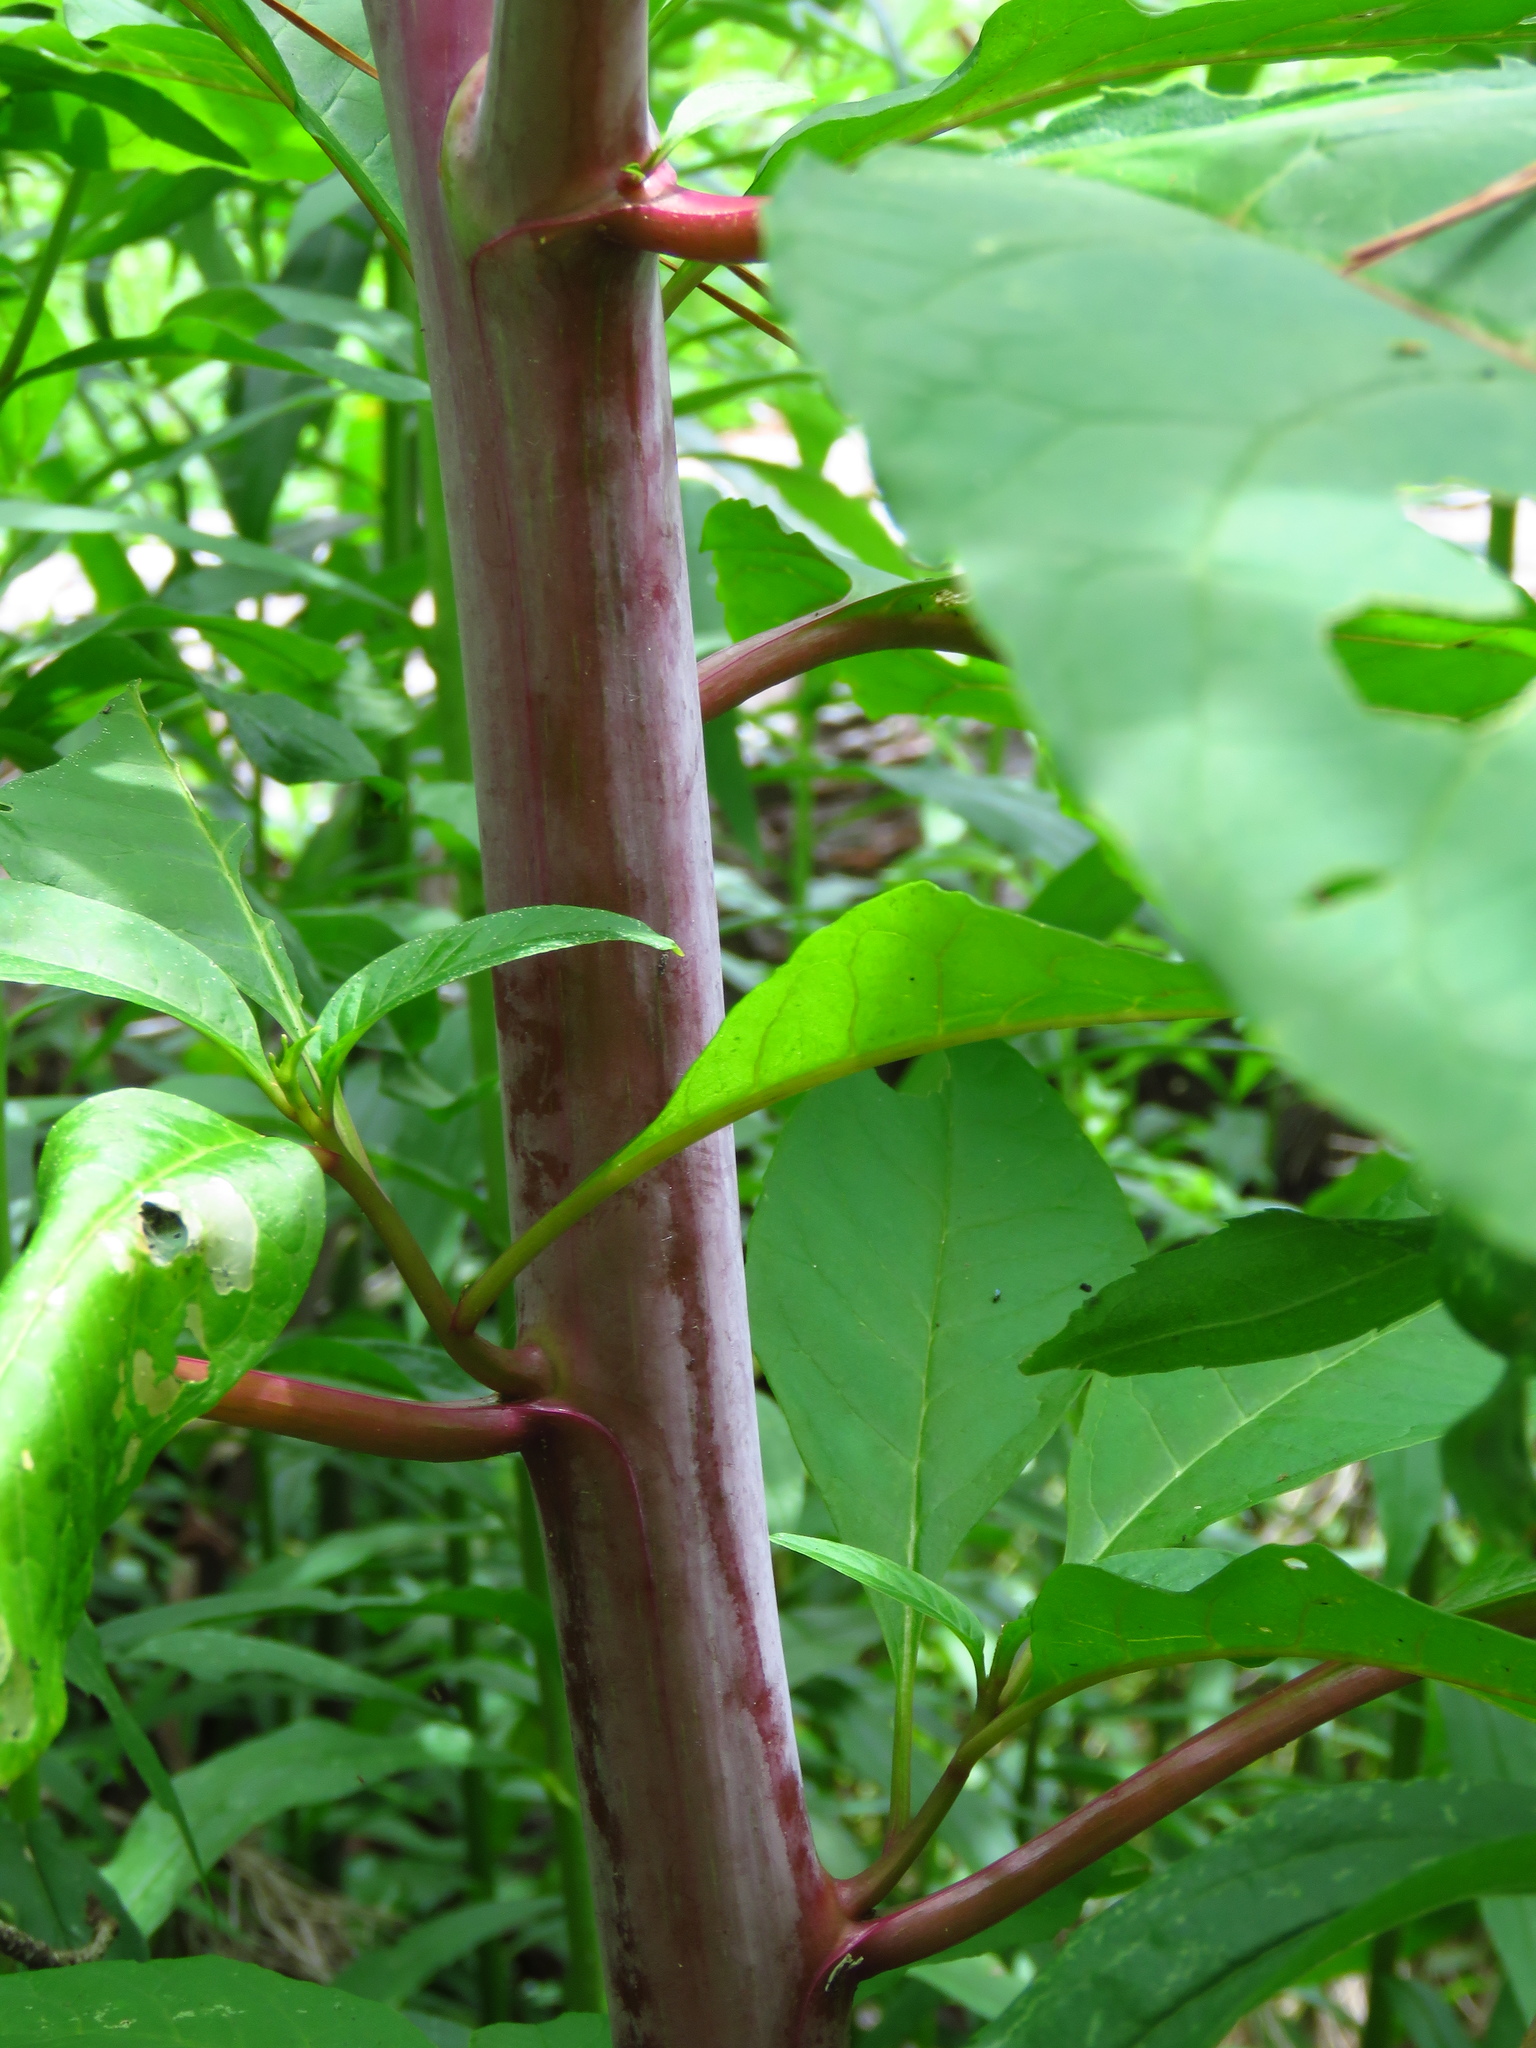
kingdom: Plantae
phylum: Tracheophyta
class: Magnoliopsida
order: Caryophyllales
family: Phytolaccaceae
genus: Phytolacca
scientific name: Phytolacca americana
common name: American pokeweed
